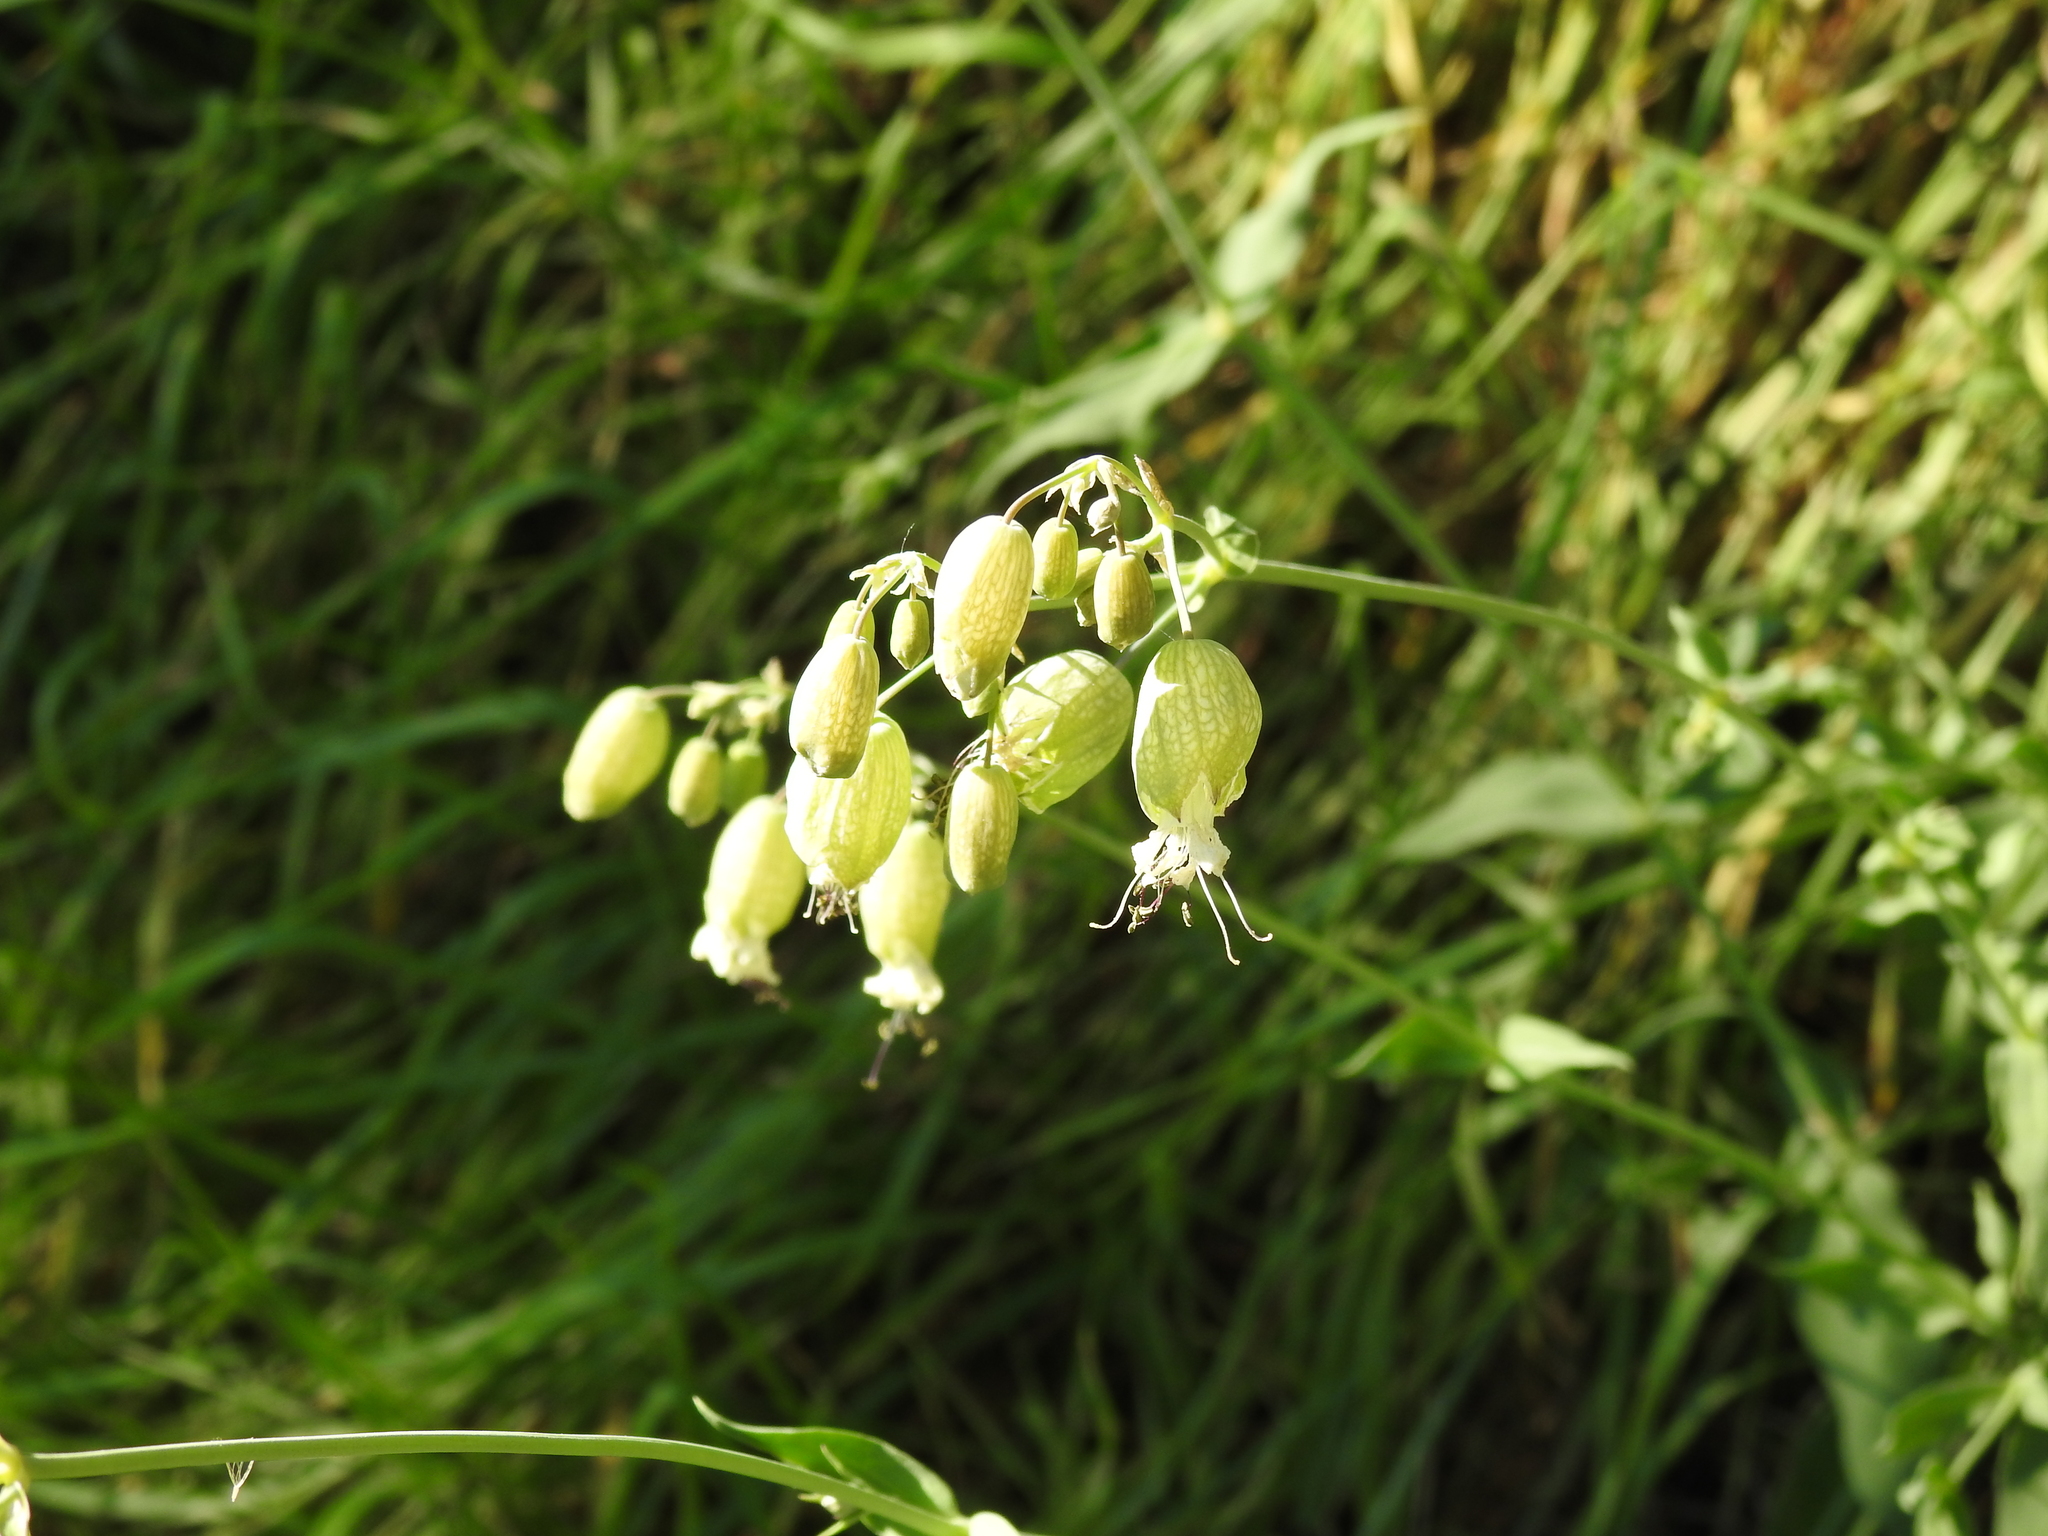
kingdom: Plantae
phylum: Tracheophyta
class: Magnoliopsida
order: Caryophyllales
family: Caryophyllaceae
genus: Silene
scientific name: Silene vulgaris
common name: Bladder campion
